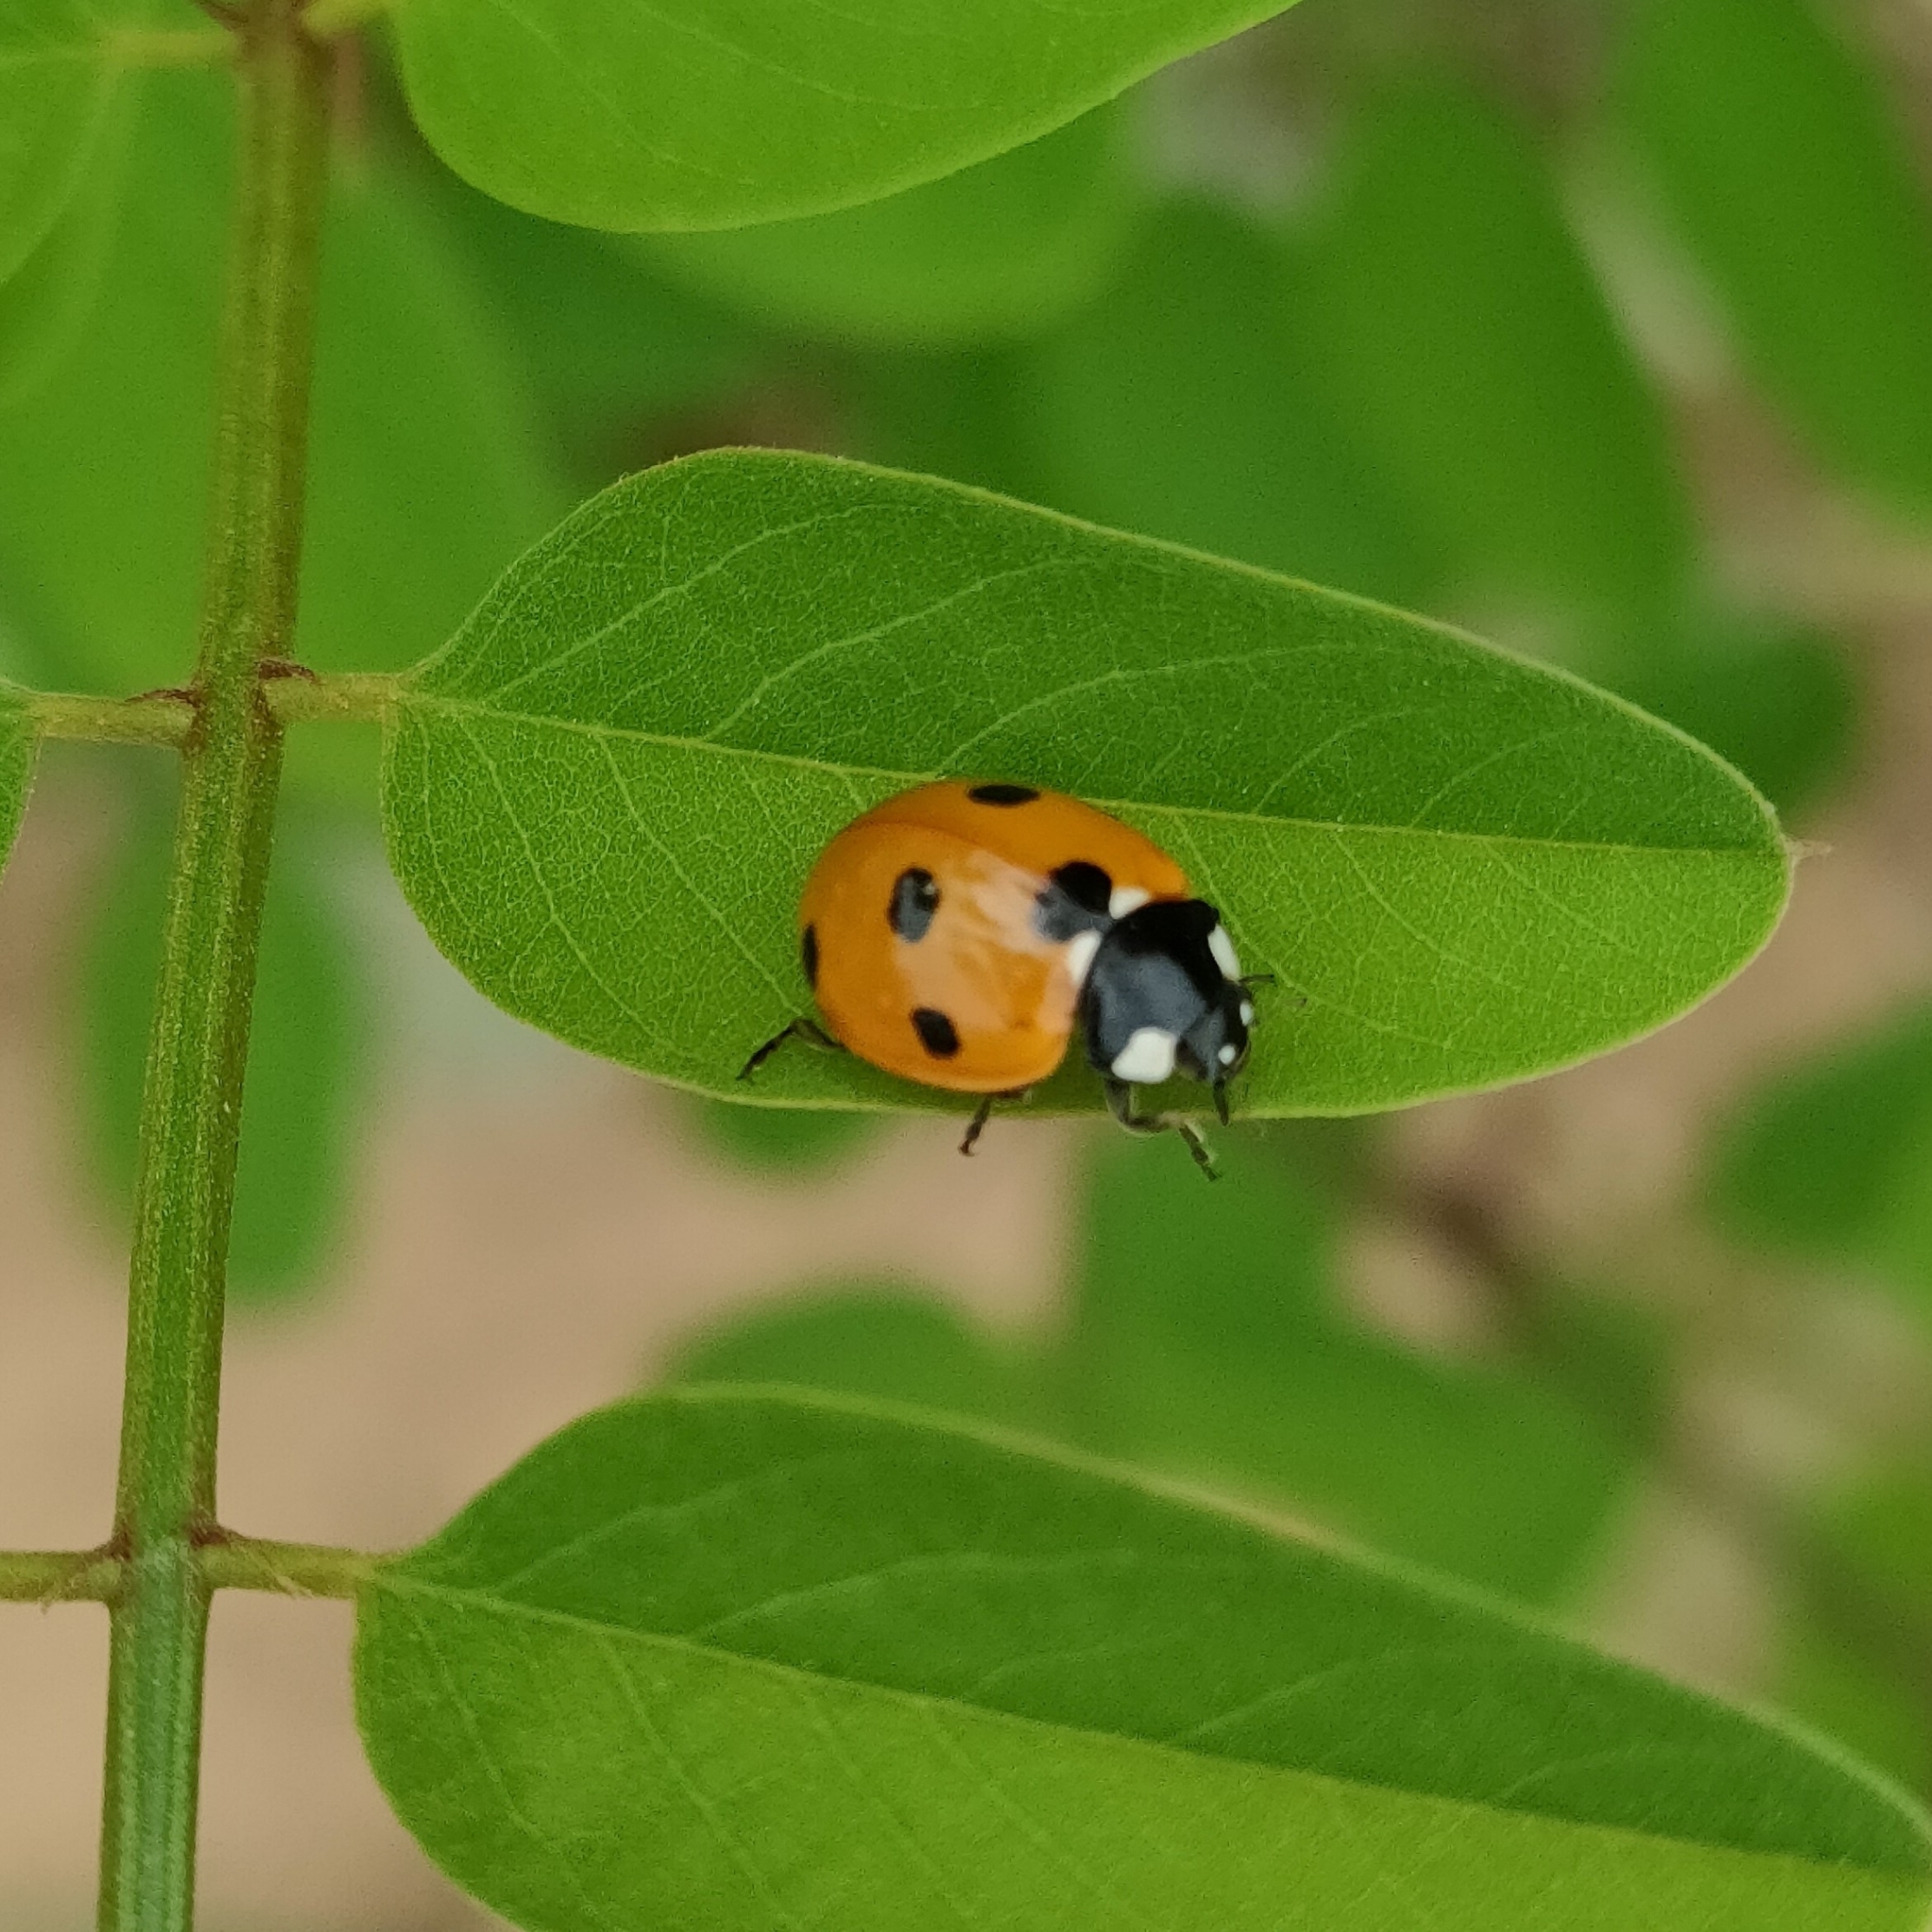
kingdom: Animalia
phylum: Arthropoda
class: Insecta
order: Coleoptera
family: Coccinellidae
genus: Coccinella
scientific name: Coccinella septempunctata
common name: Sevenspotted lady beetle
